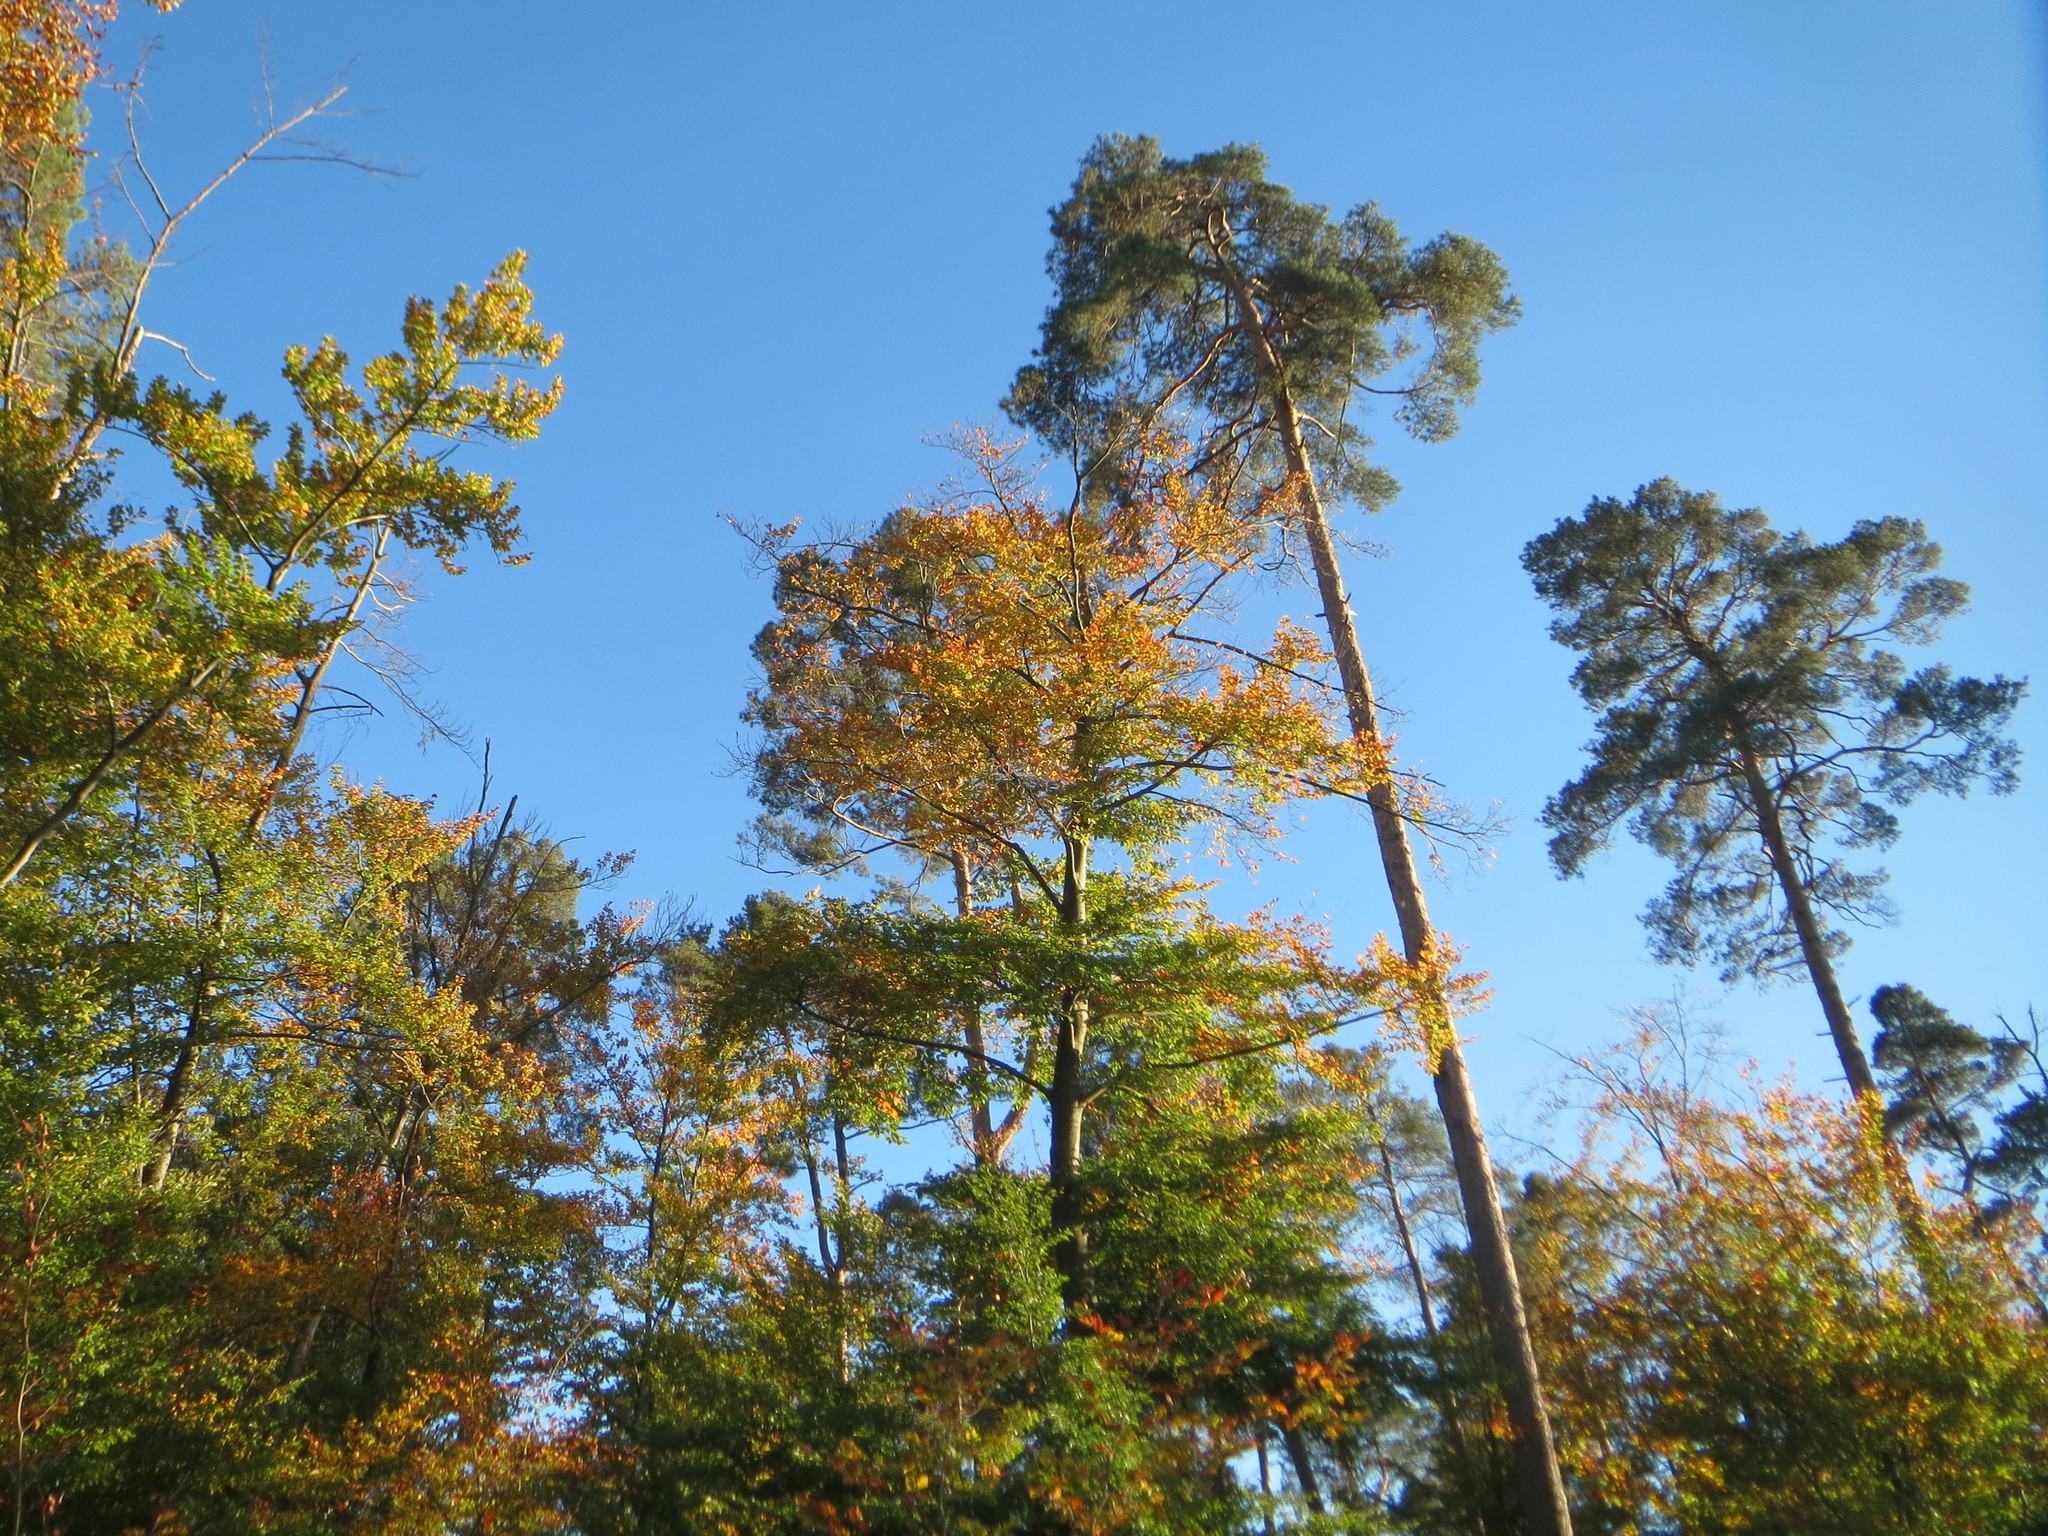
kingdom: Plantae
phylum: Tracheophyta
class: Magnoliopsida
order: Fagales
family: Fagaceae
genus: Fagus
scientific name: Fagus sylvatica
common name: Beech
